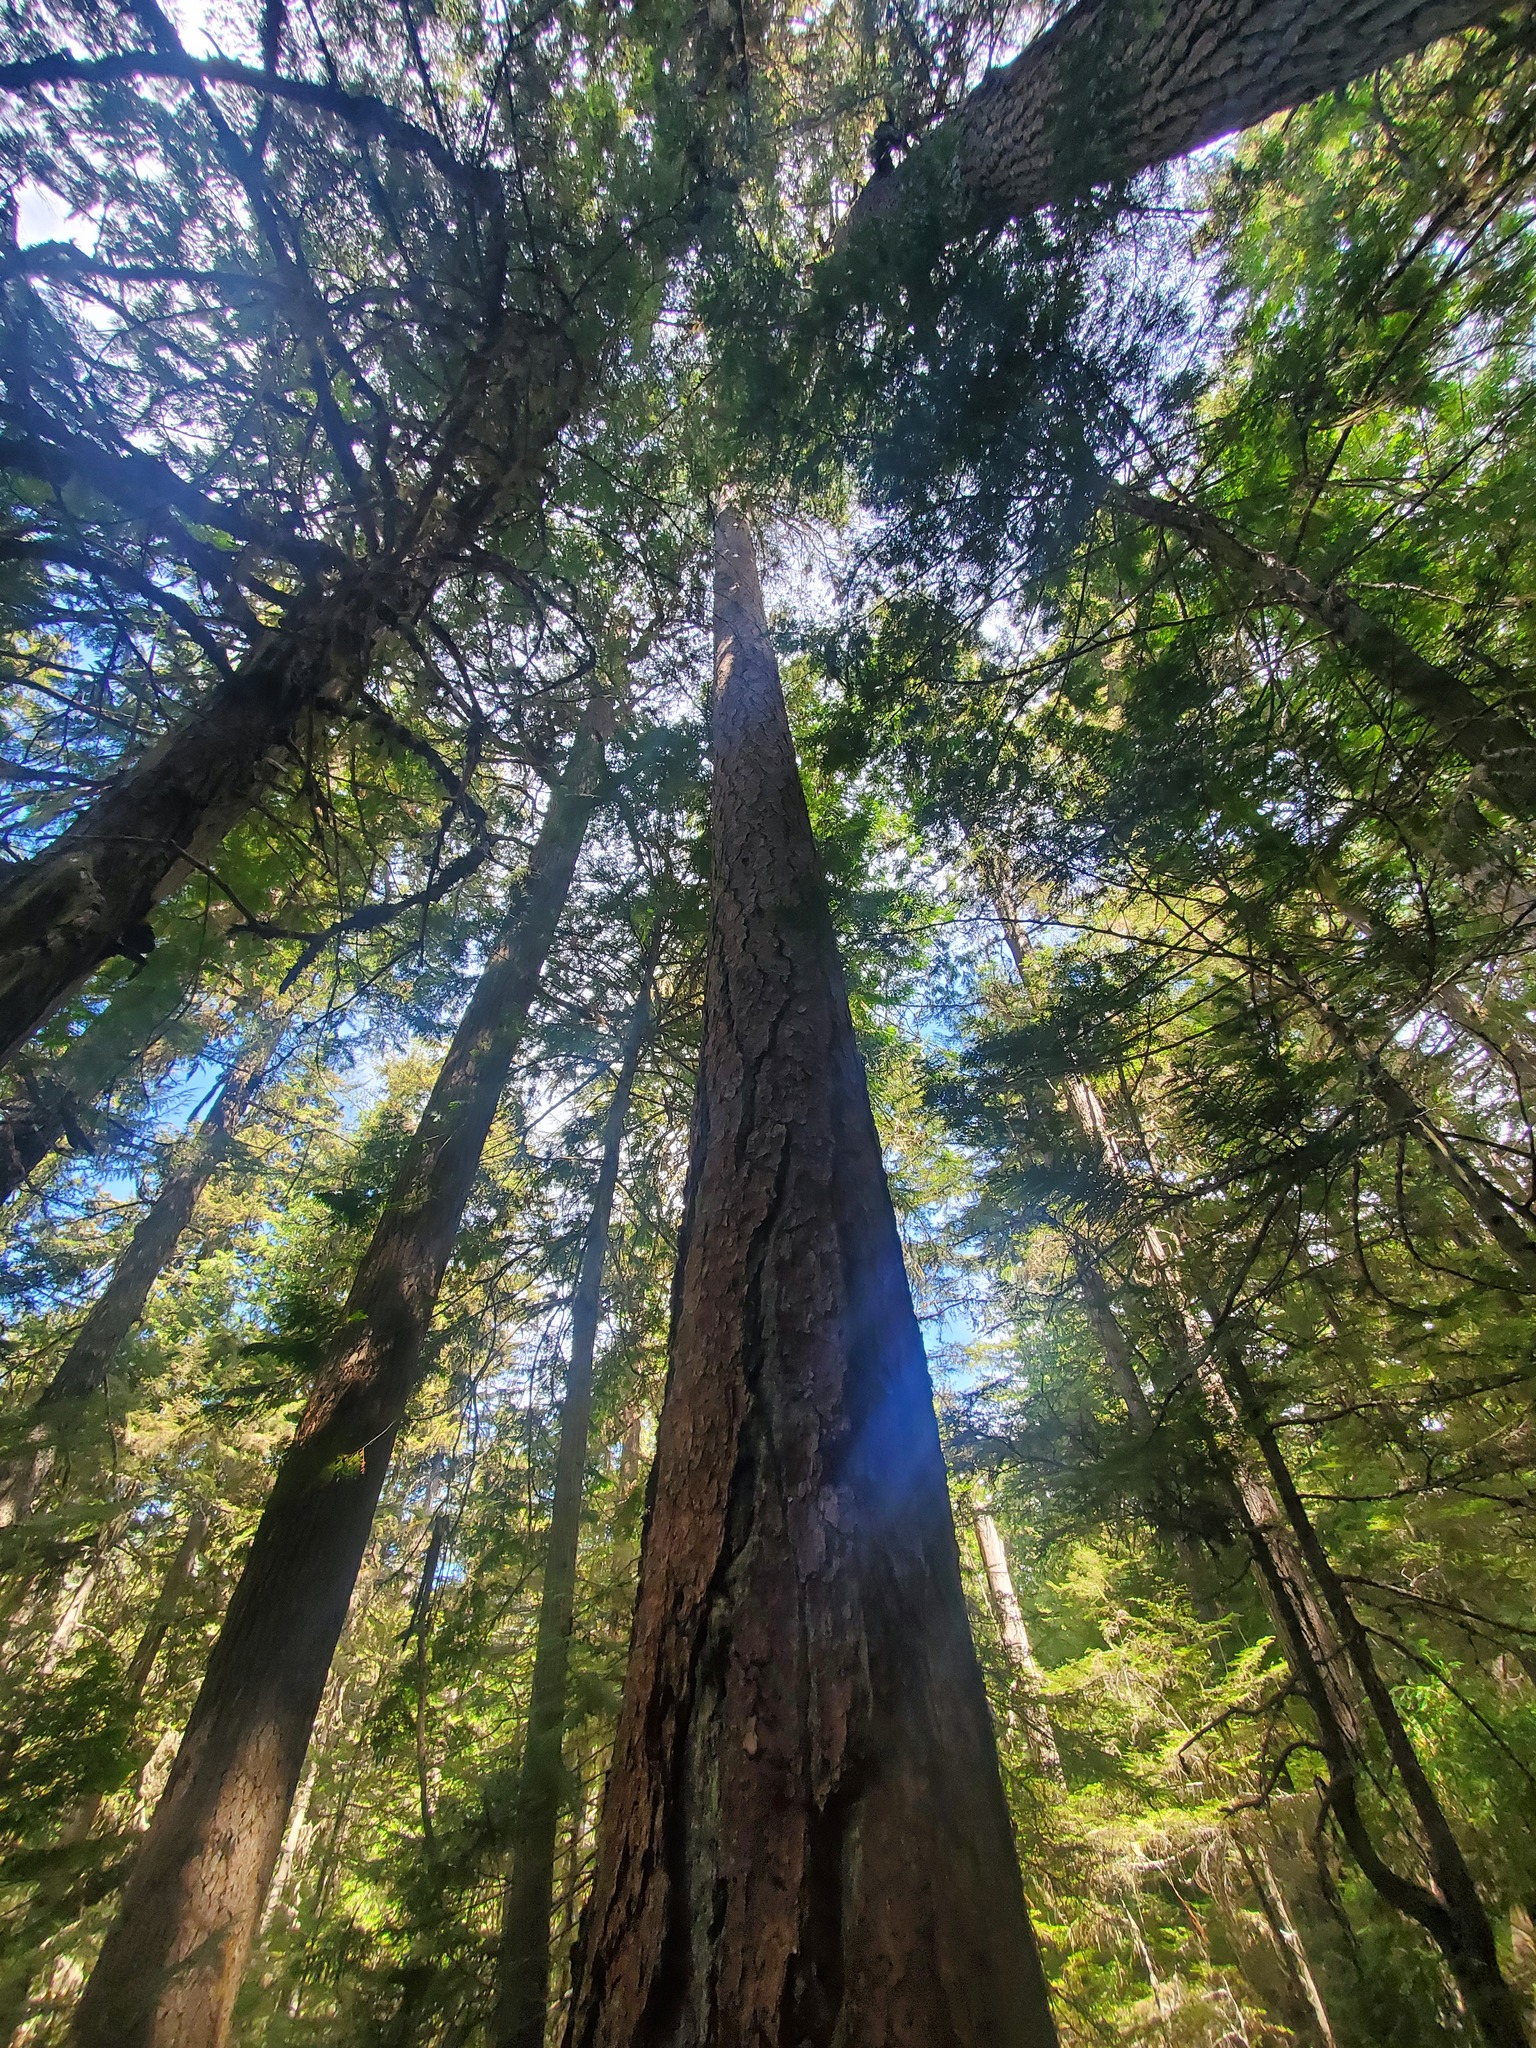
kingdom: Plantae
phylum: Tracheophyta
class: Pinopsida
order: Pinales
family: Pinaceae
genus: Larix
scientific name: Larix occidentalis
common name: Western larch
